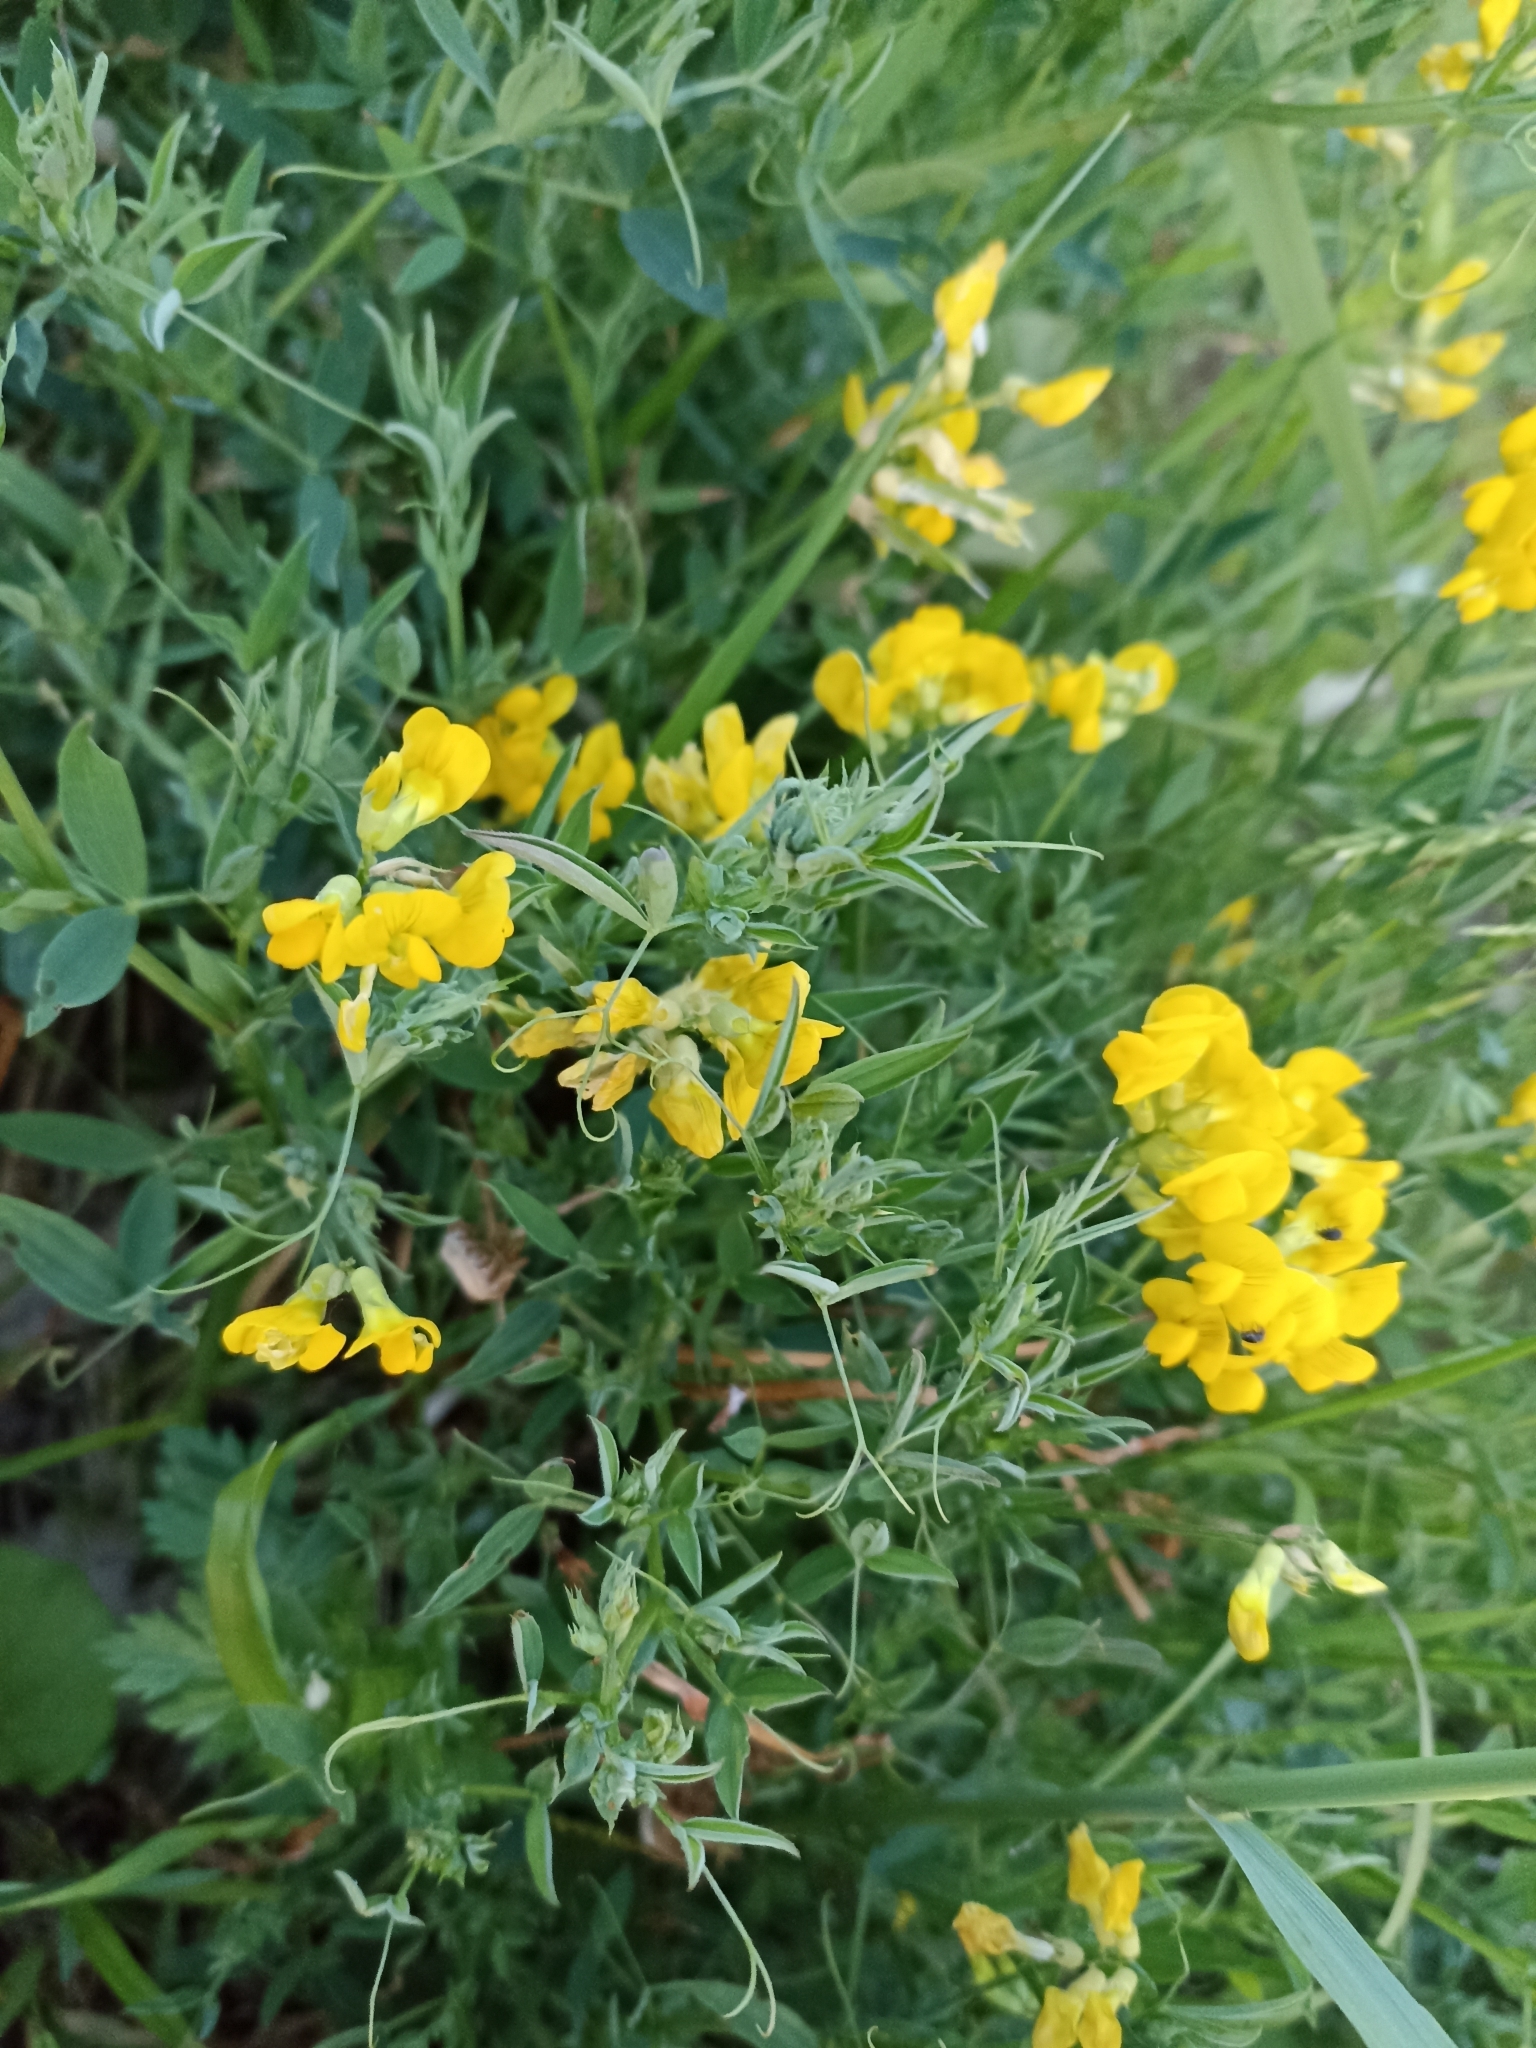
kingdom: Plantae
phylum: Tracheophyta
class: Magnoliopsida
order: Fabales
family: Fabaceae
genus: Lathyrus
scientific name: Lathyrus pratensis
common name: Meadow vetchling
